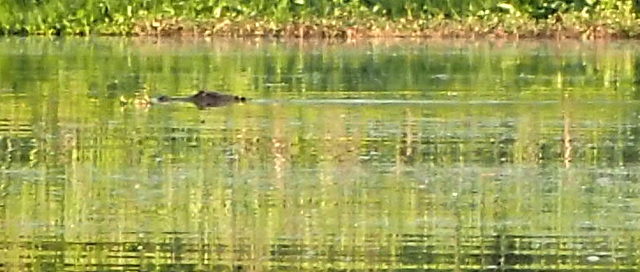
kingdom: Animalia
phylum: Chordata
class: Crocodylia
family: Alligatoridae
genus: Alligator
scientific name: Alligator mississippiensis
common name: American alligator
